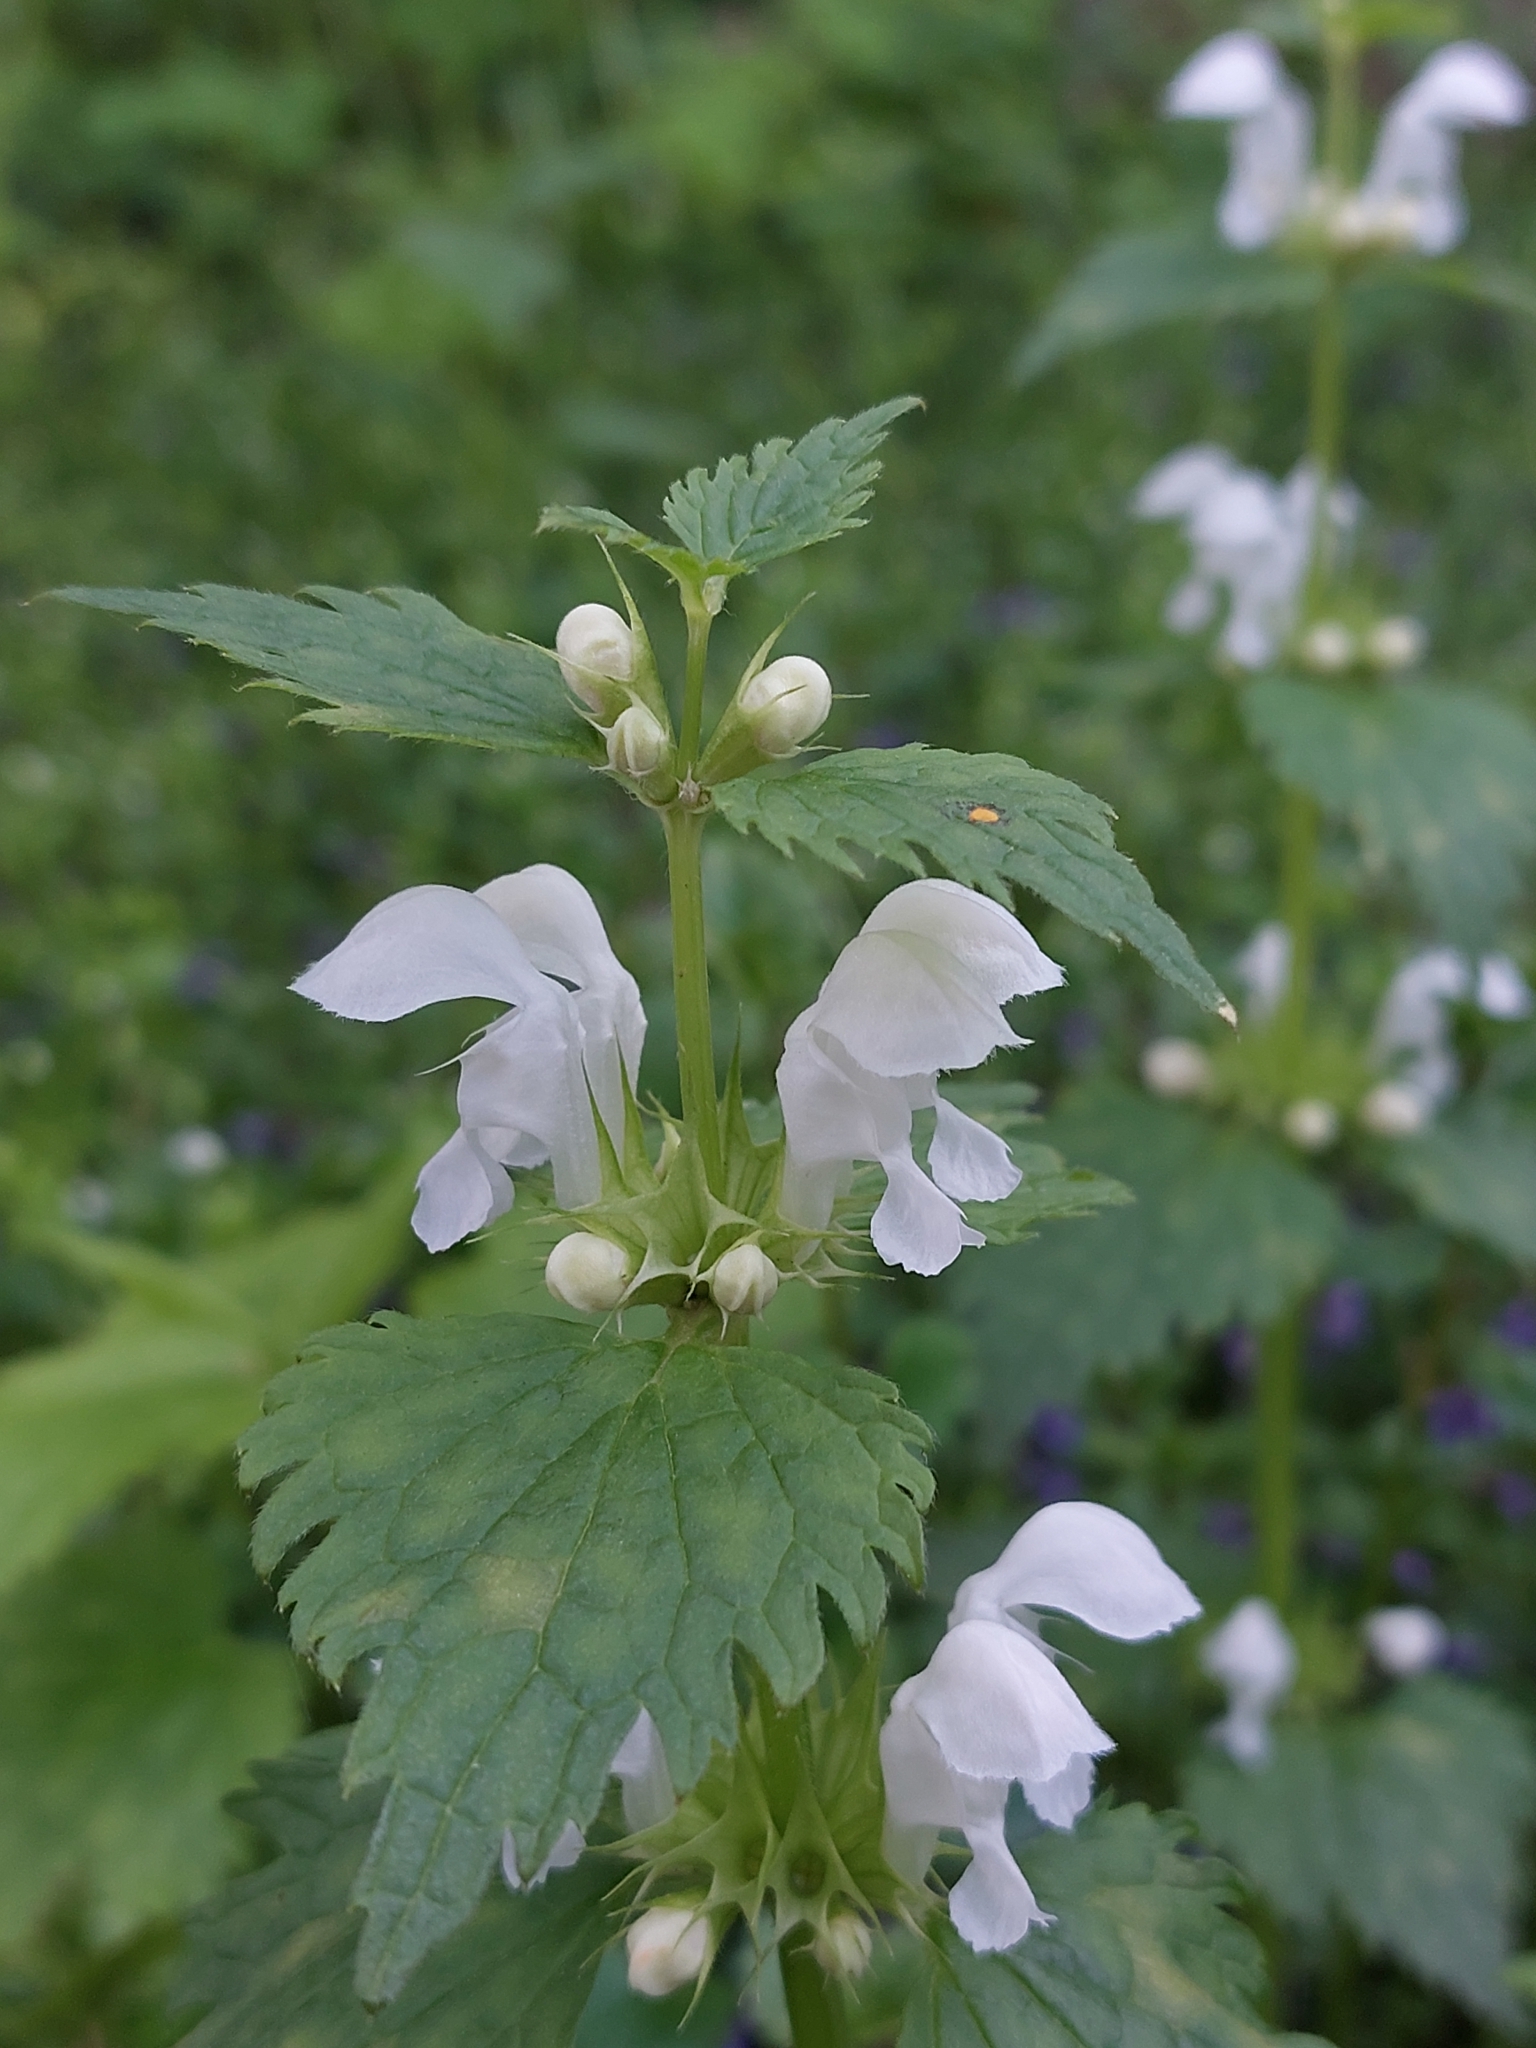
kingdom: Plantae
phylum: Tracheophyta
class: Magnoliopsida
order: Lamiales
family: Lamiaceae
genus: Lamium
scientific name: Lamium maculatum
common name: Spotted dead-nettle
